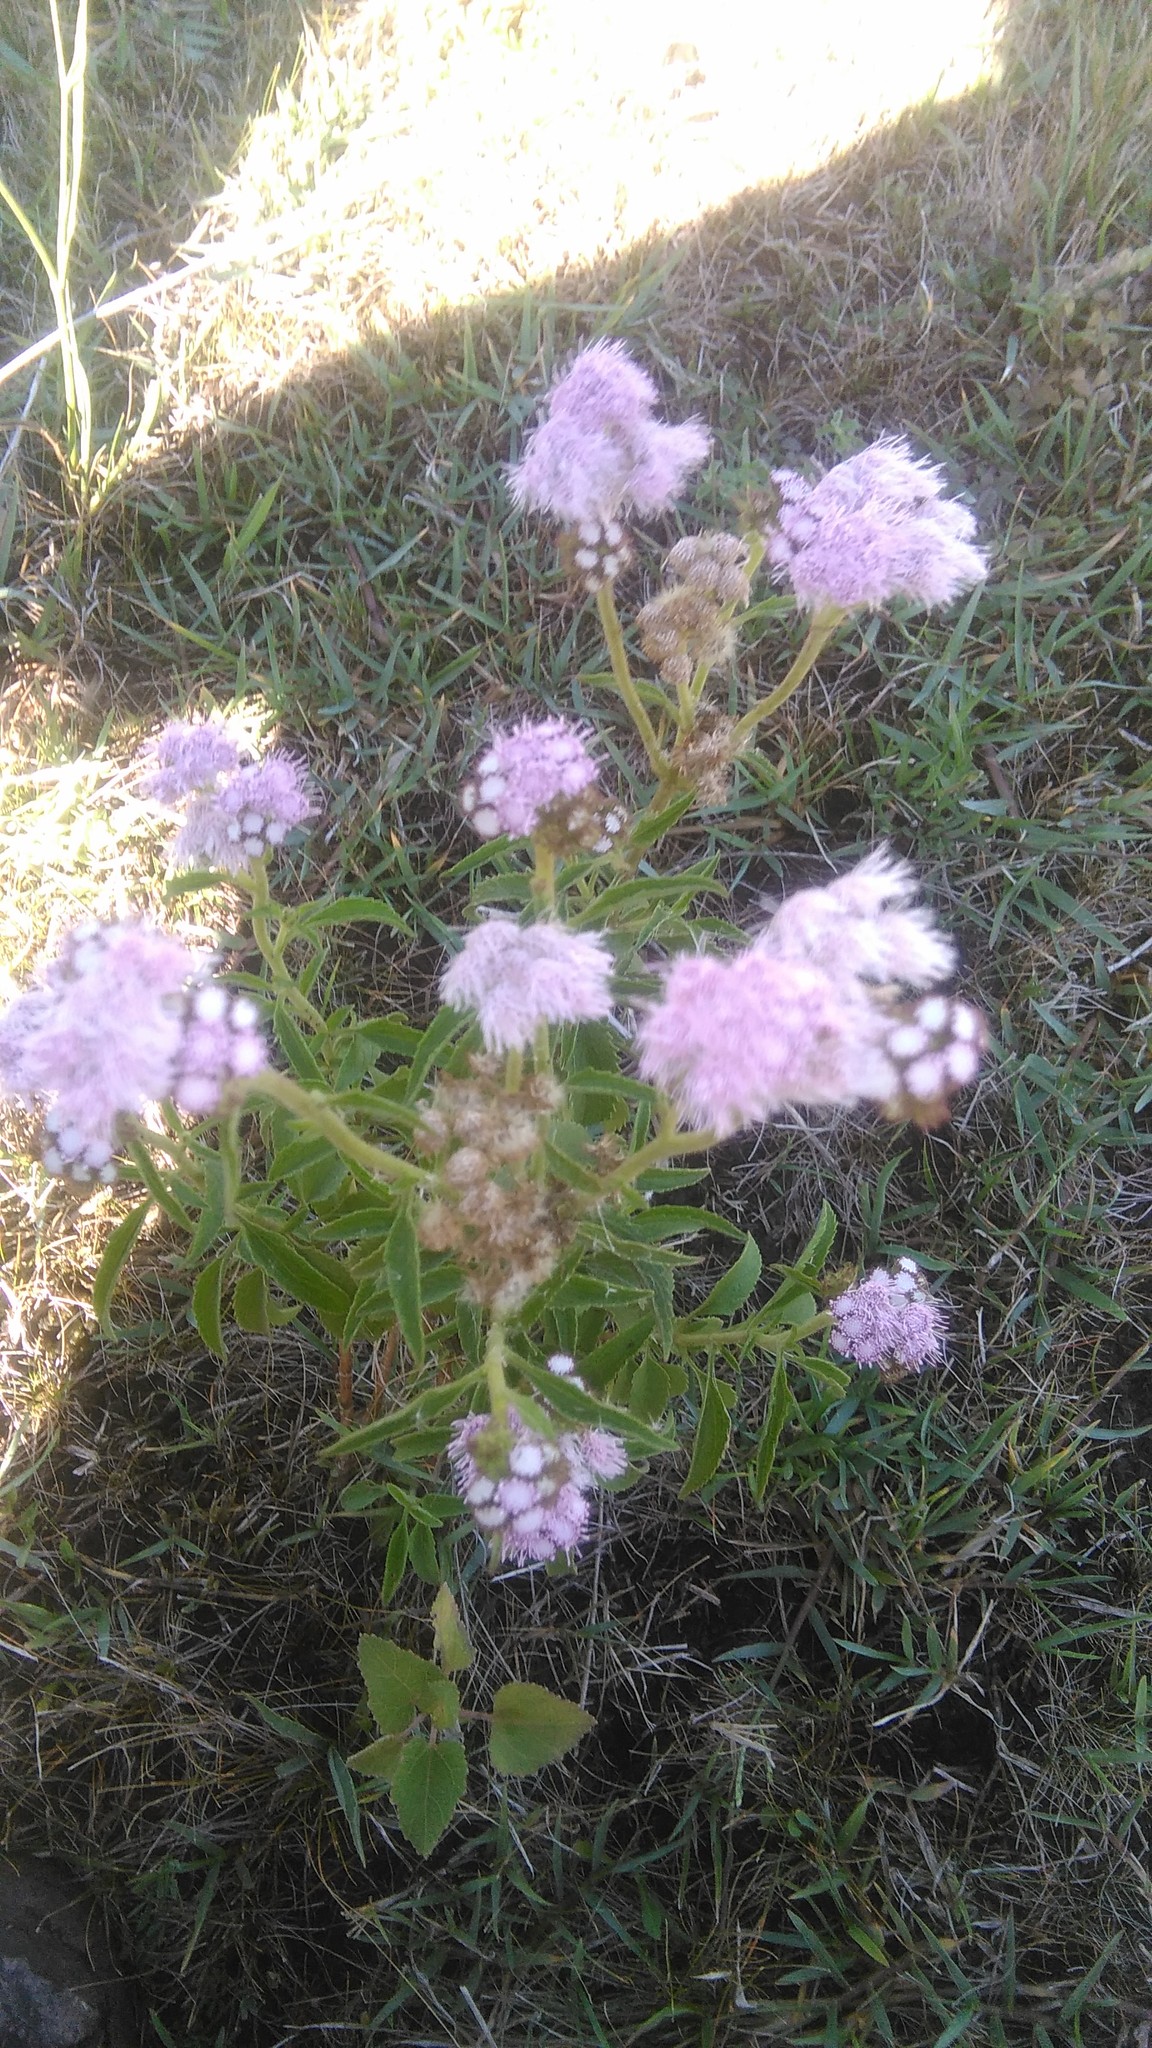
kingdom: Plantae
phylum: Tracheophyta
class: Magnoliopsida
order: Asterales
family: Asteraceae
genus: Barrosoa
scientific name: Barrosoa candolleana
